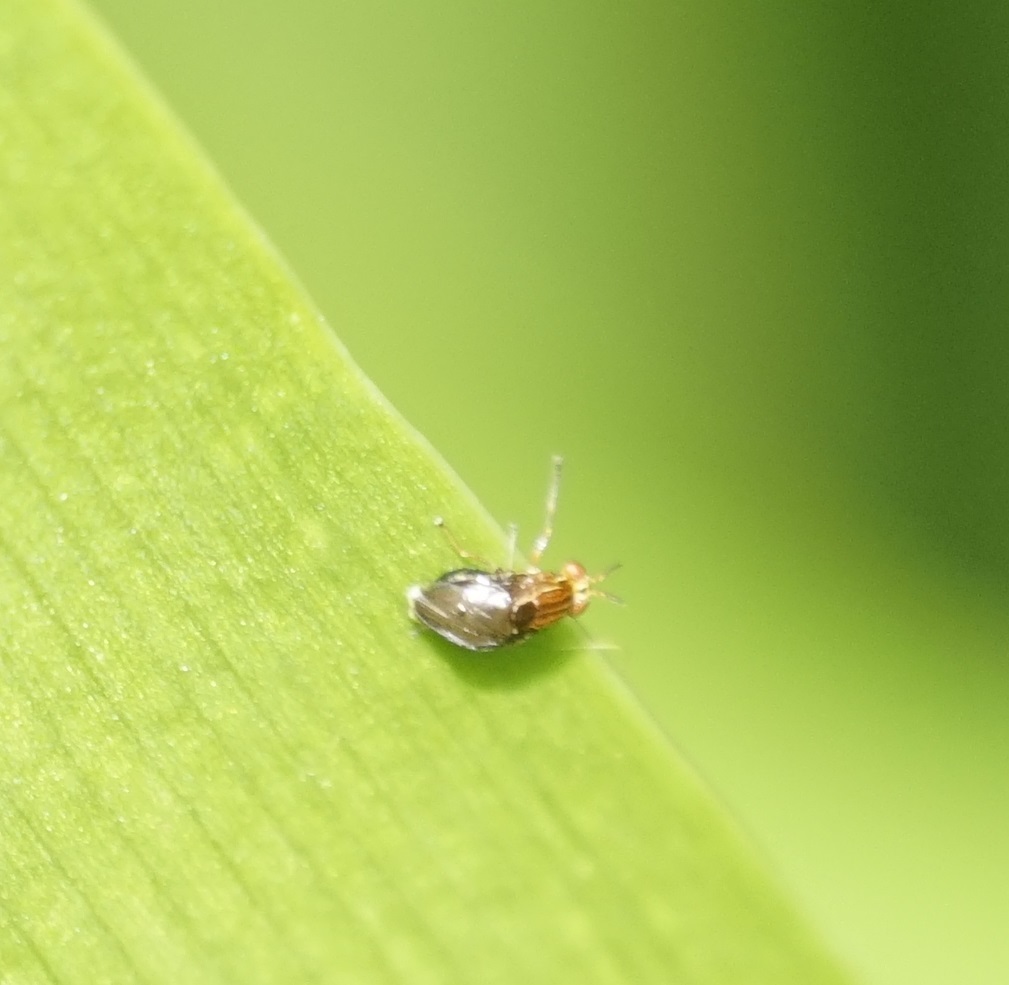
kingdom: Animalia
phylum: Arthropoda
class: Insecta
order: Diptera
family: Lauxaniidae
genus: Steganopsis
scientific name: Steganopsis melanogaster
